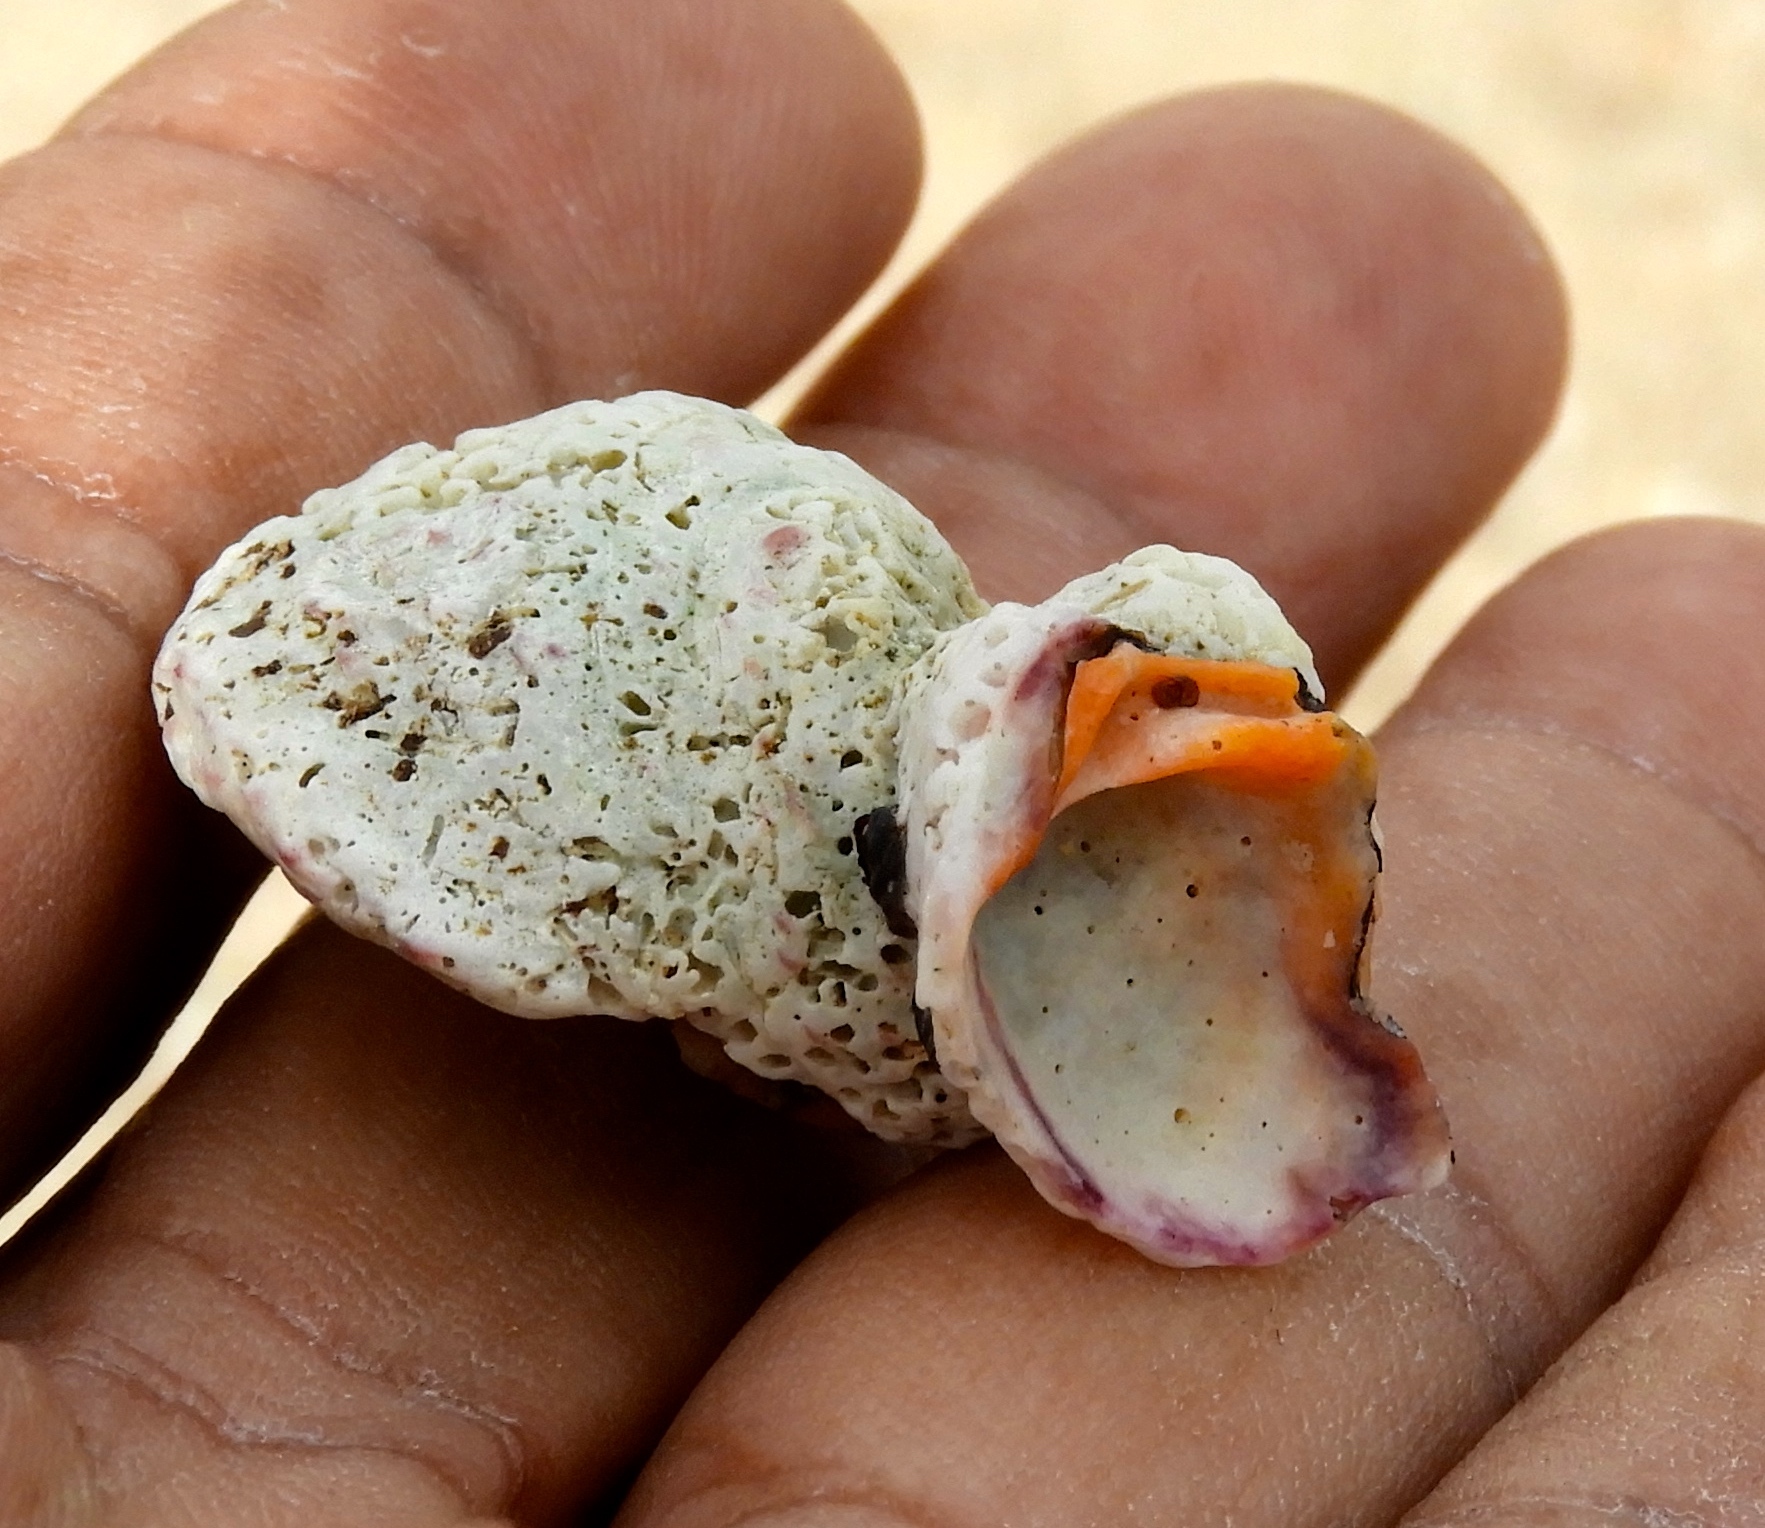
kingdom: Animalia
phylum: Mollusca
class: Bivalvia
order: Venerida
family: Chamidae
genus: Chama
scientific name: Chama coralloides
